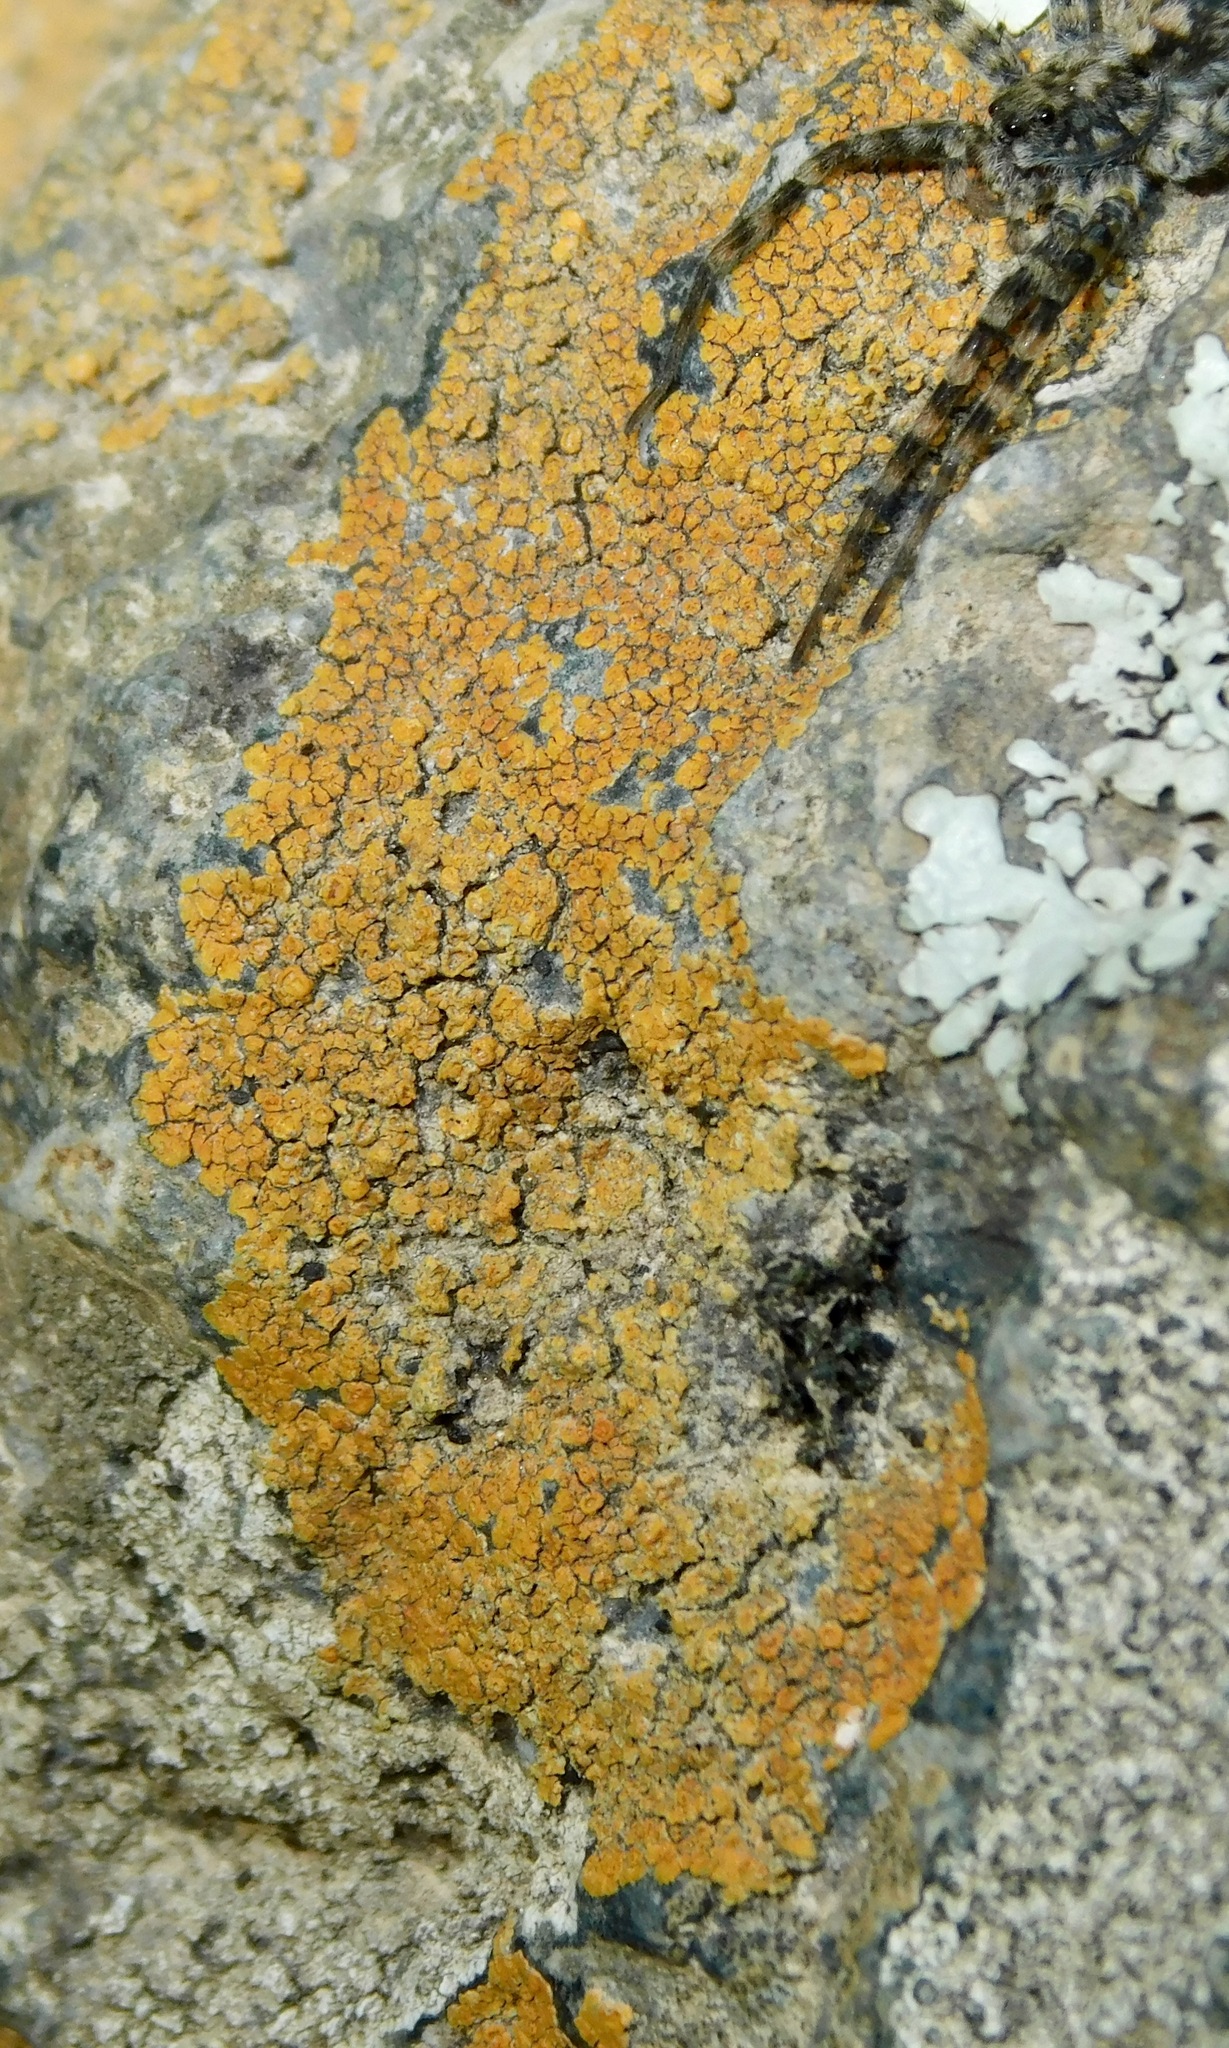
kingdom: Fungi
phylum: Ascomycota
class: Lecanoromycetes
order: Teloschistales
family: Teloschistaceae
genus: Squamulea
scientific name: Squamulea subsoluta
